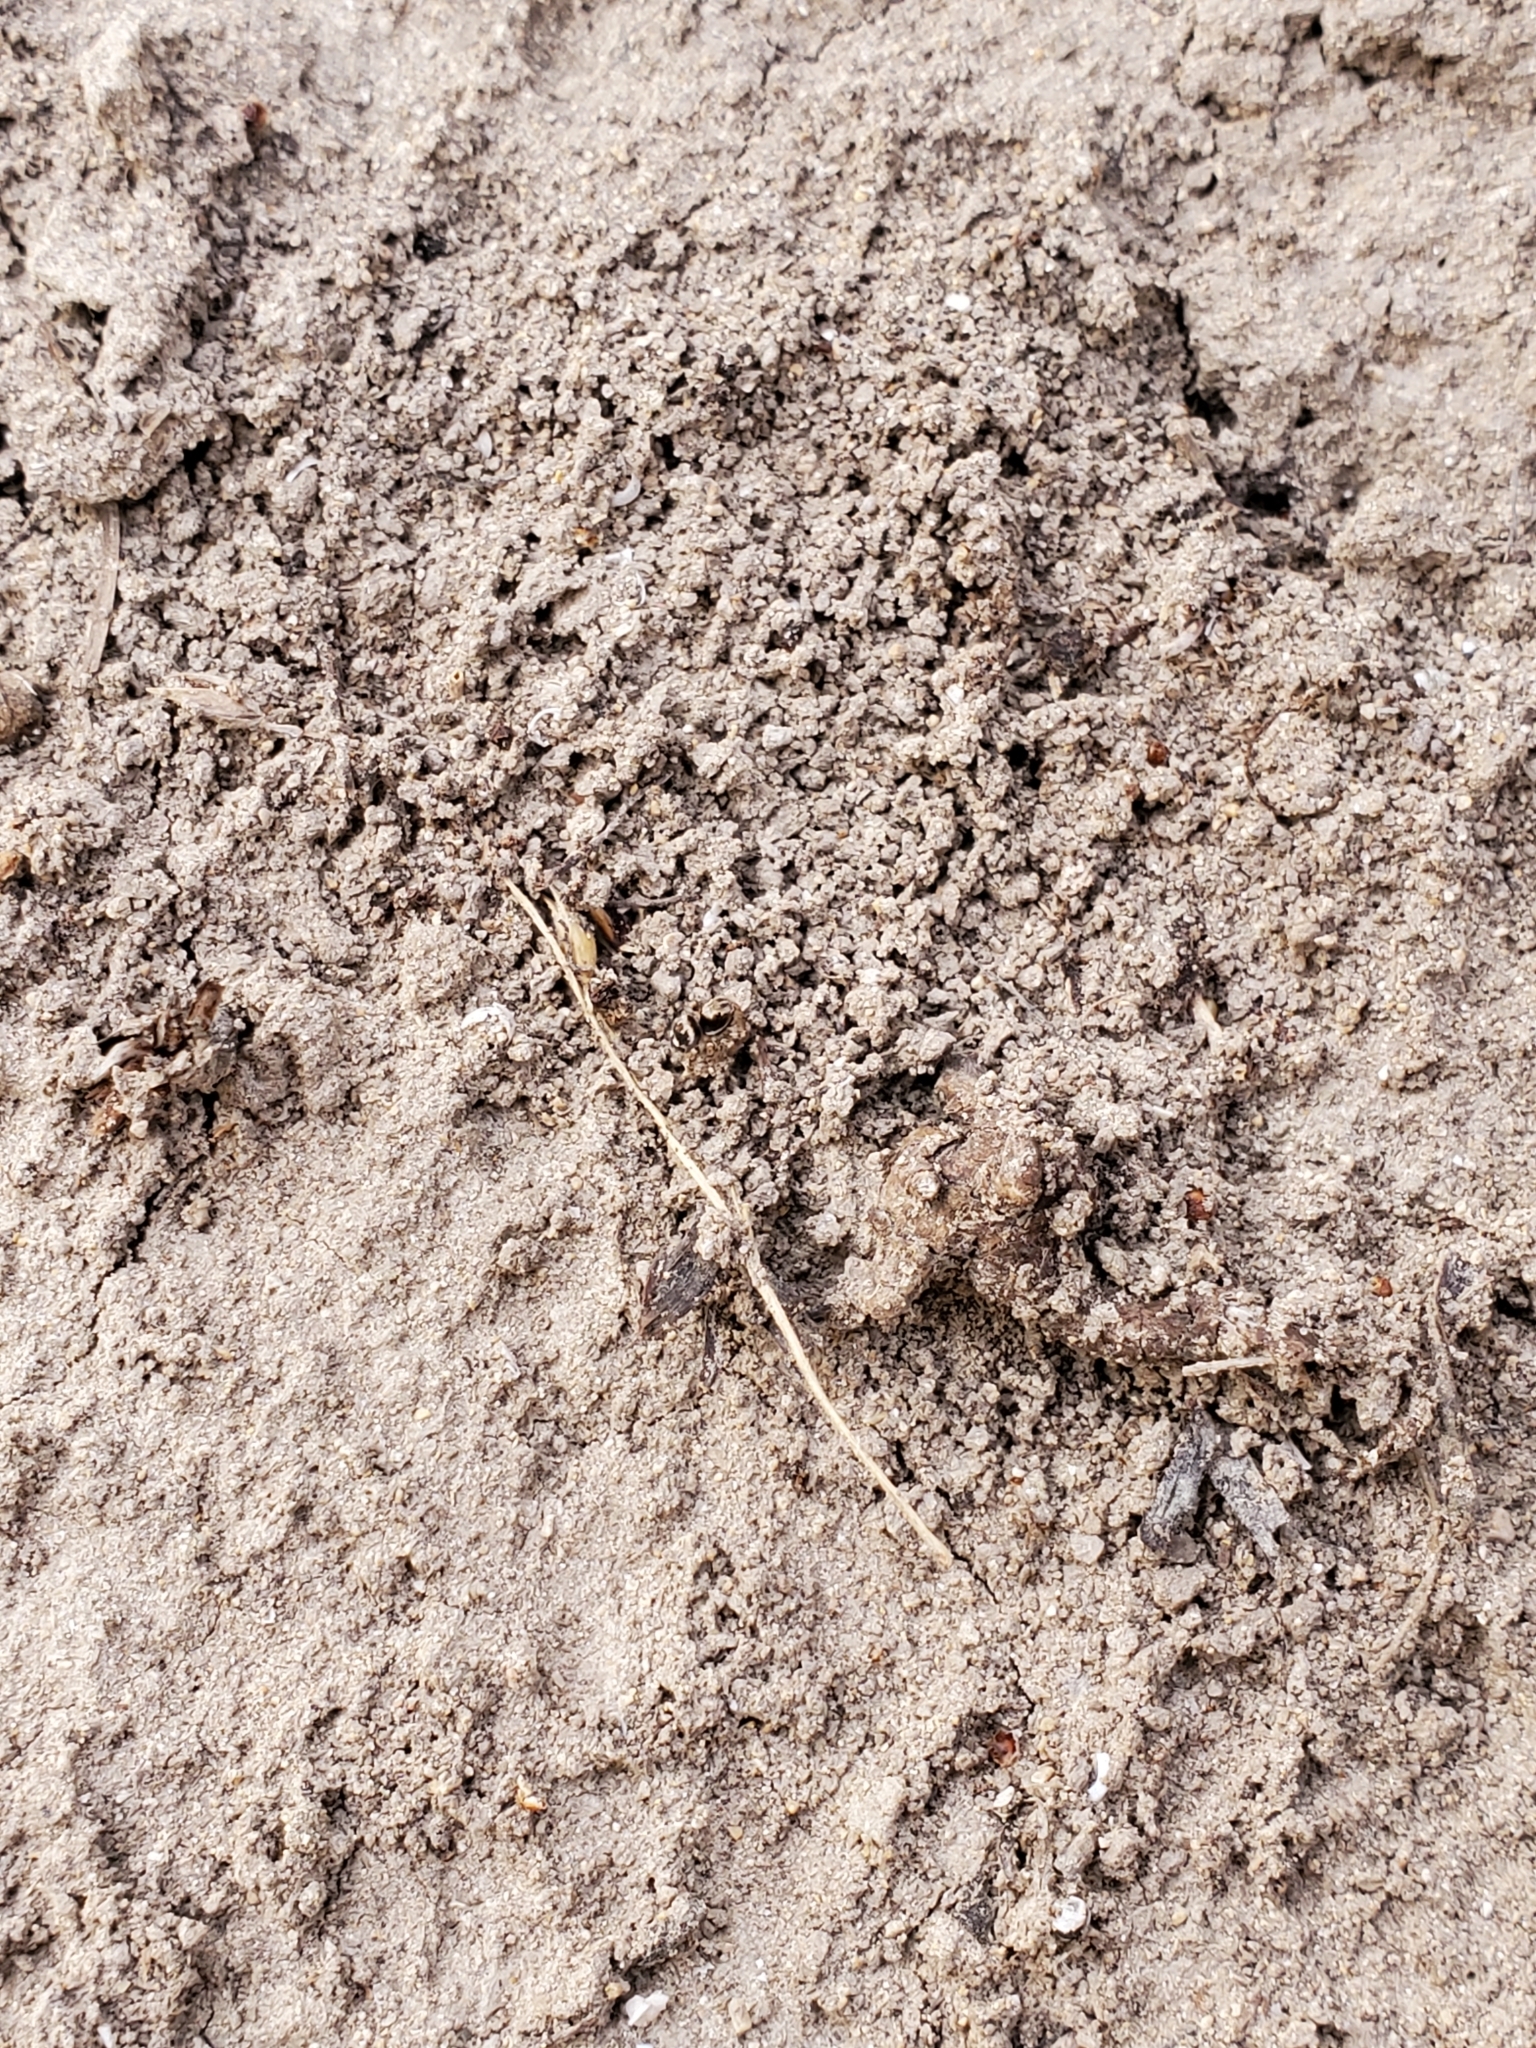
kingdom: Animalia
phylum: Arthropoda
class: Arachnida
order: Araneae
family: Salticidae
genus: Naphrys
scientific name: Naphrys acerba
